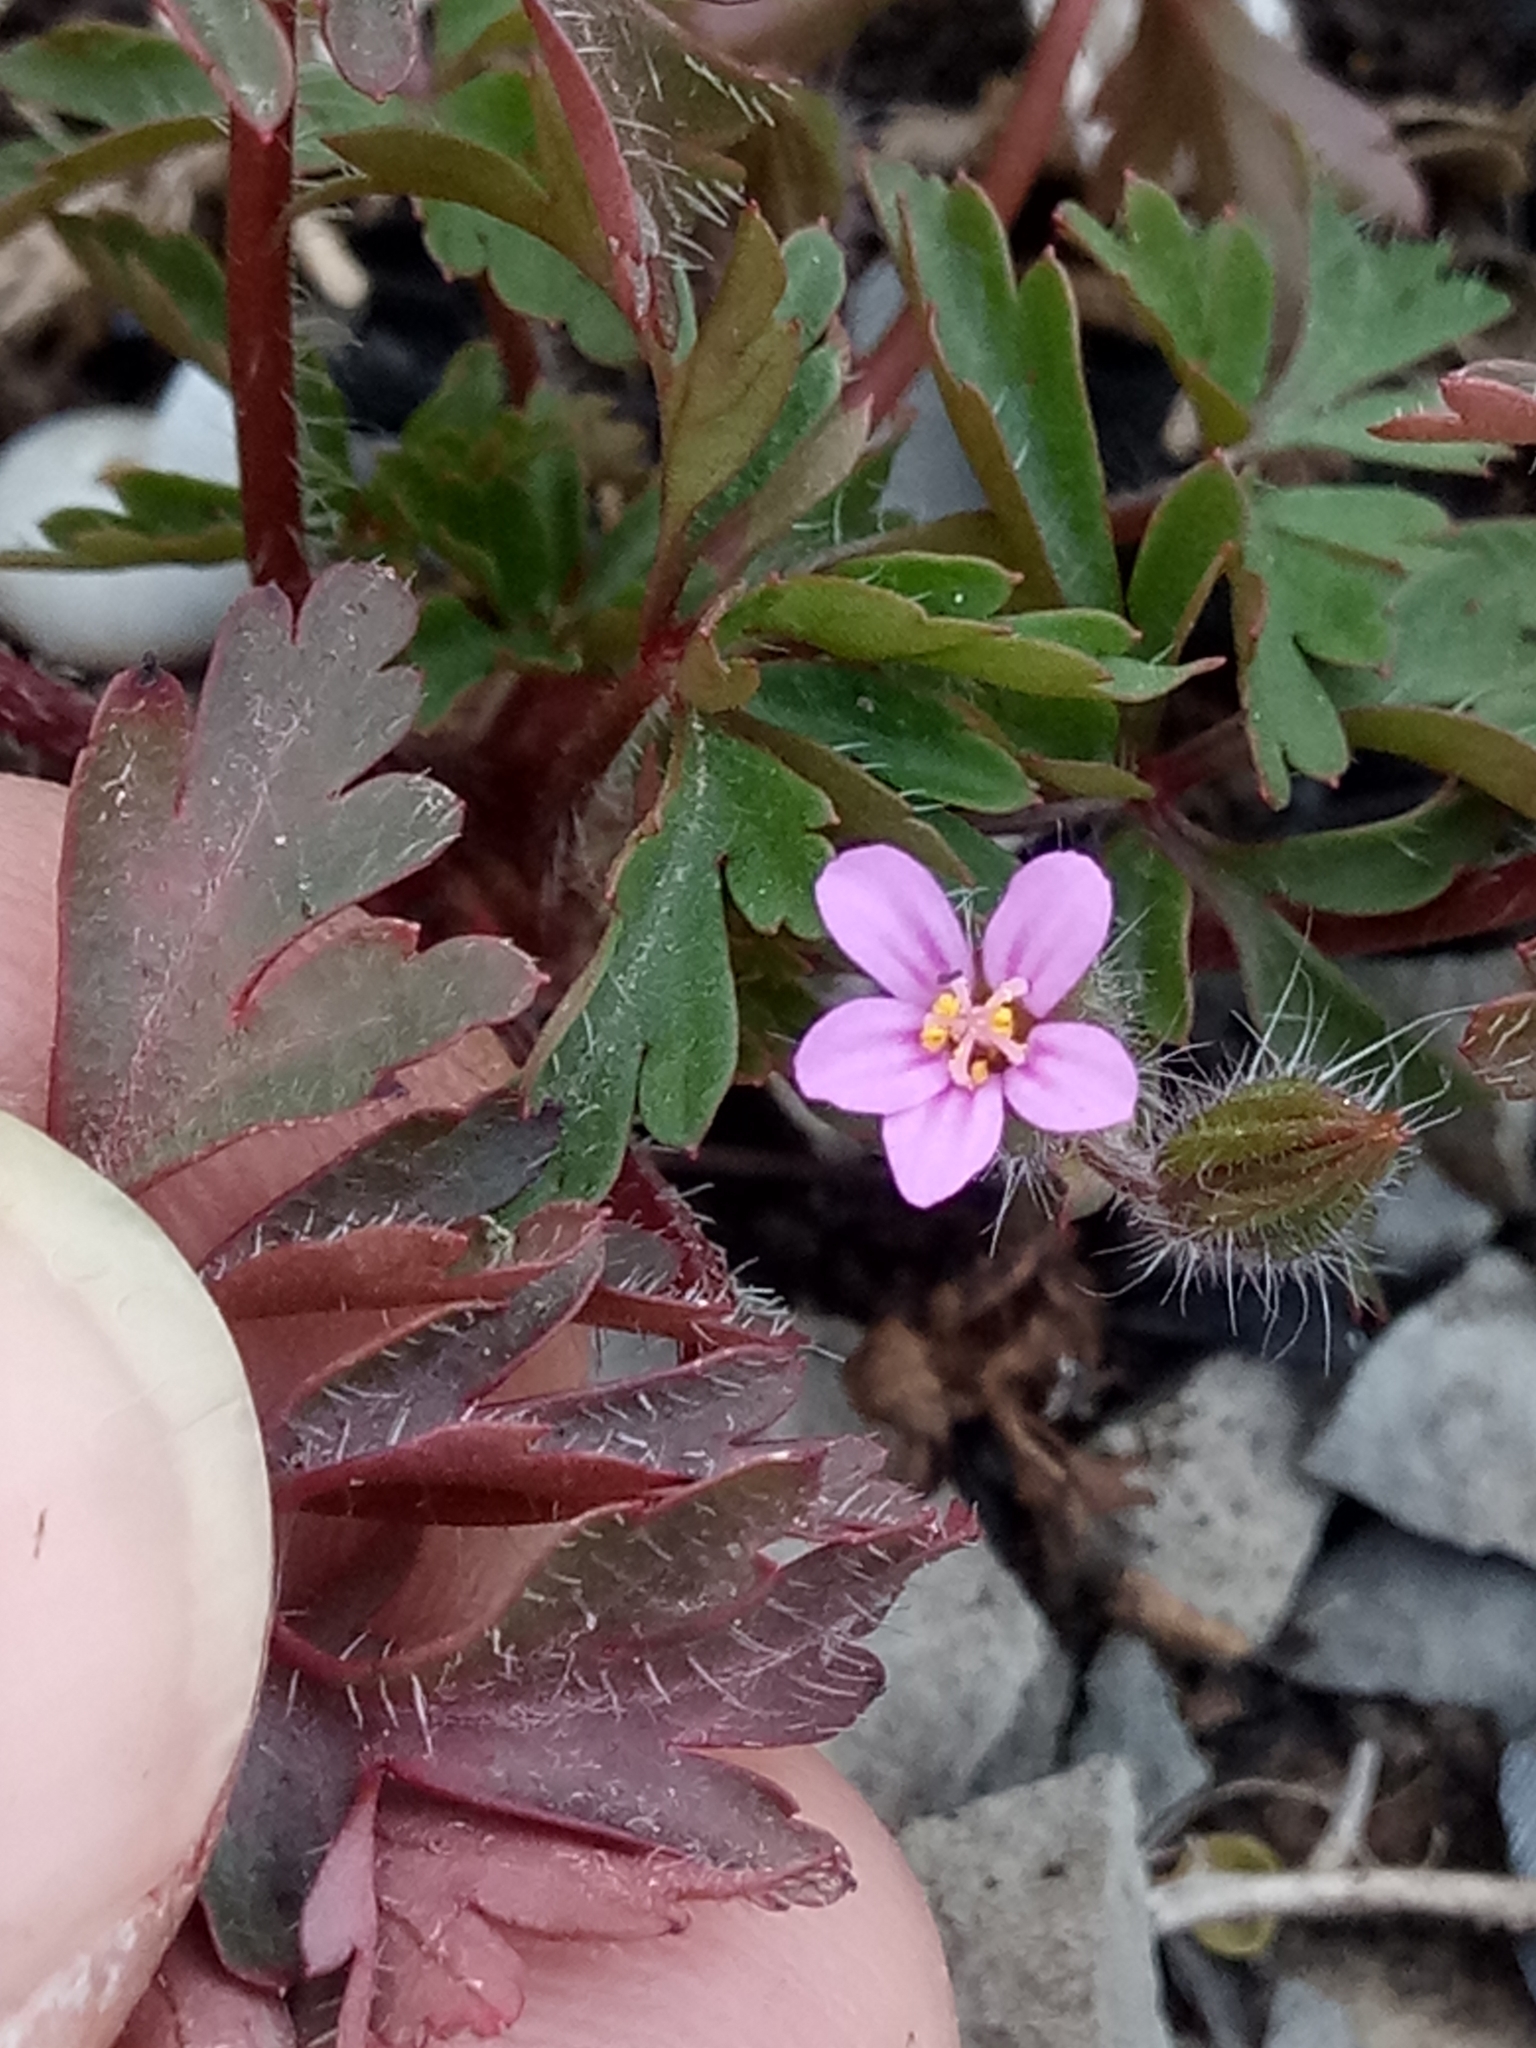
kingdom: Plantae
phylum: Tracheophyta
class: Magnoliopsida
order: Geraniales
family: Geraniaceae
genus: Geranium
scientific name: Geranium purpureum
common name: Little-robin
